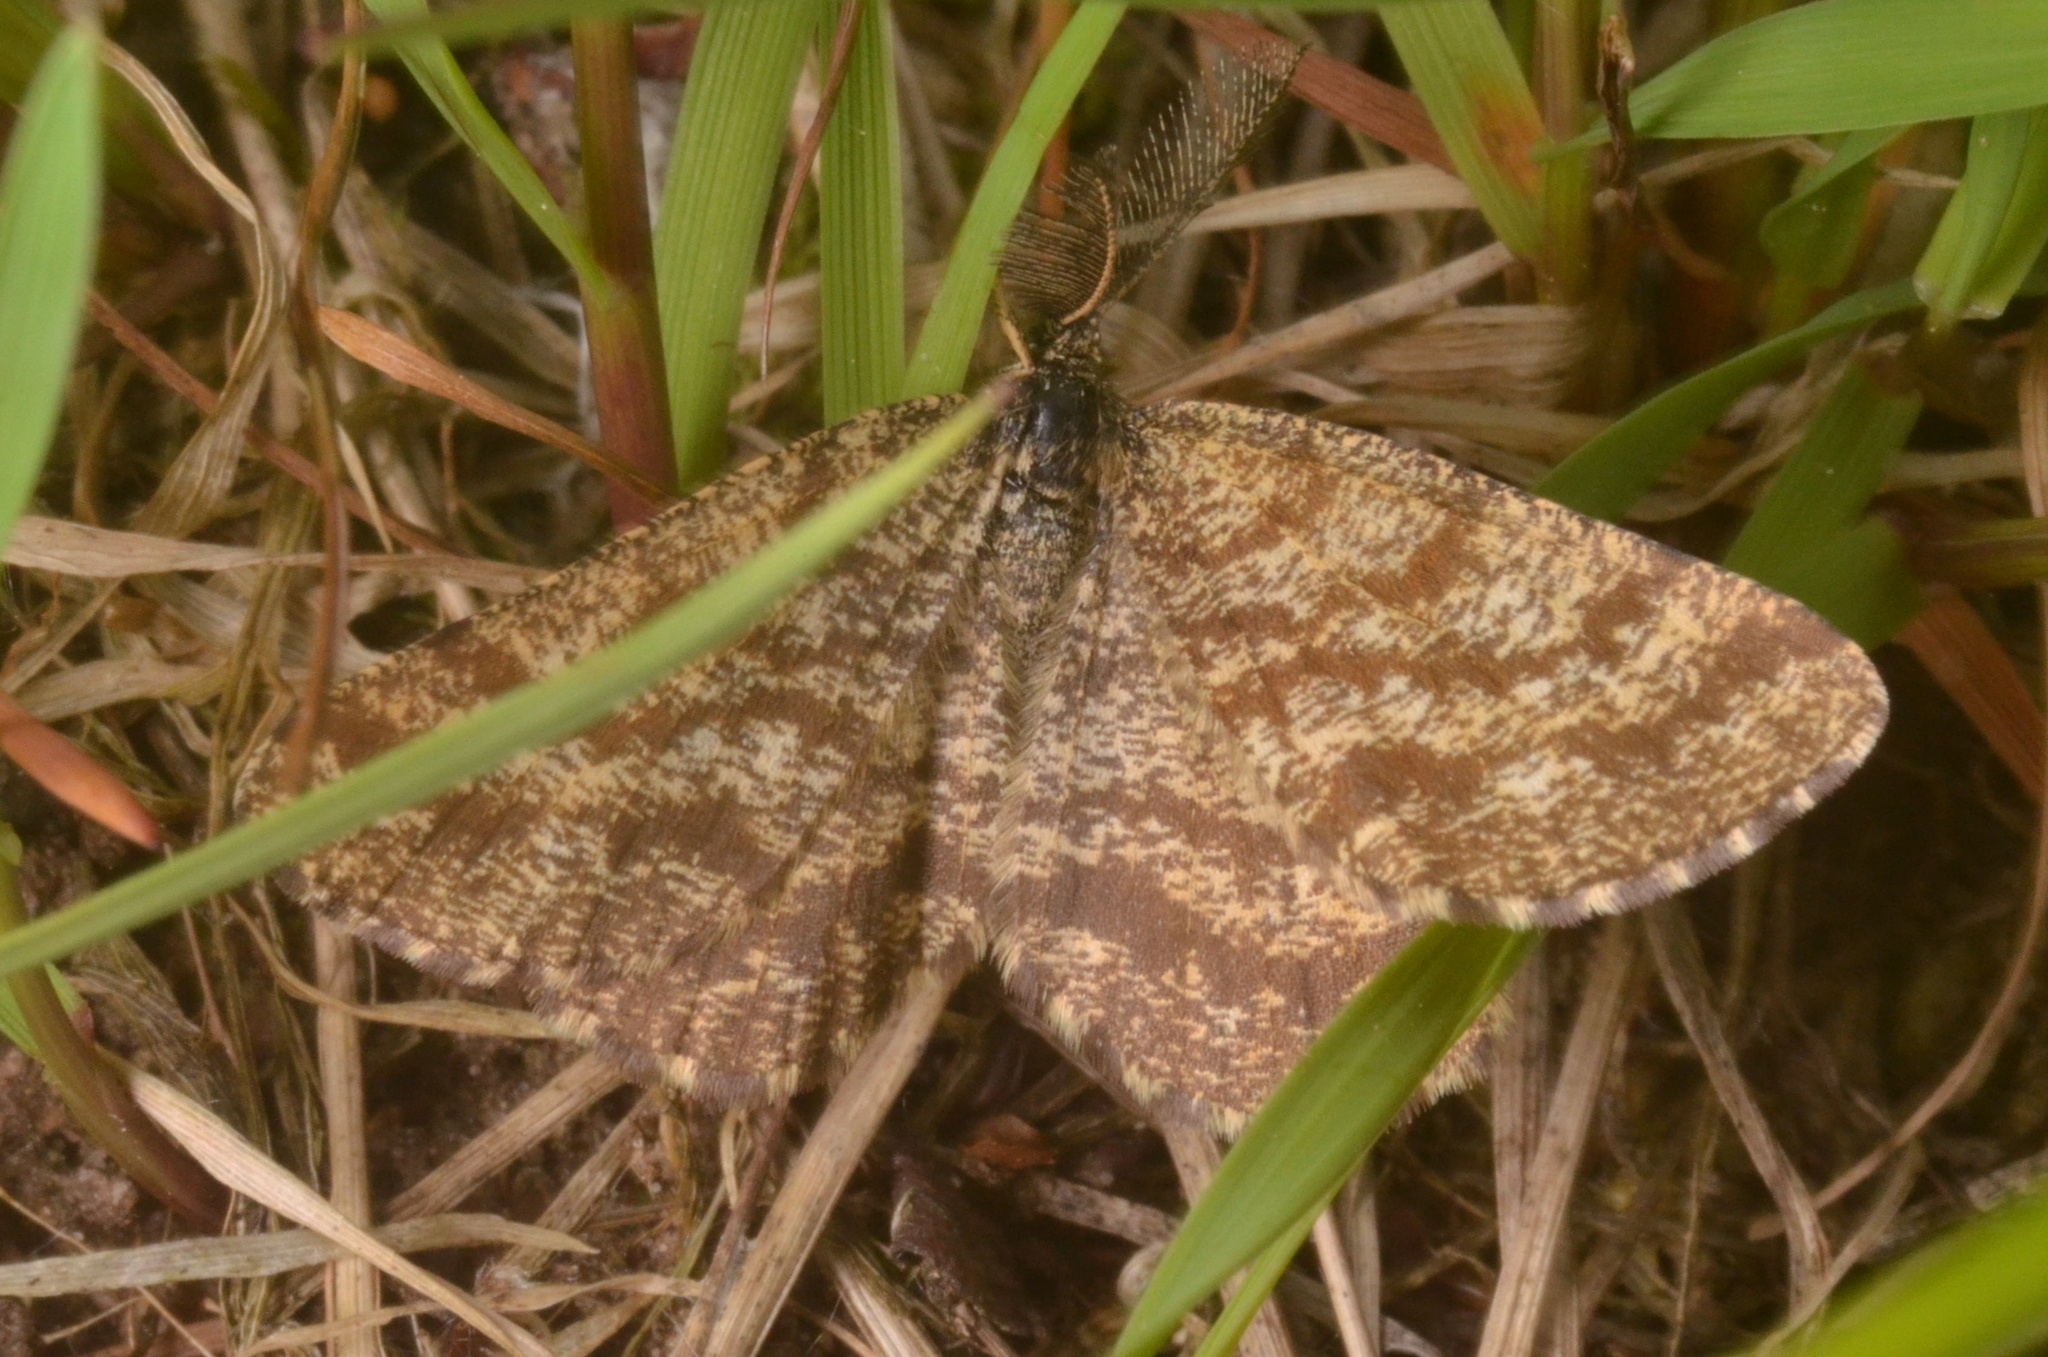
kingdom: Animalia
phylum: Arthropoda
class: Insecta
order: Lepidoptera
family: Geometridae
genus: Ematurga
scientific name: Ematurga atomaria
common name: Common heath
